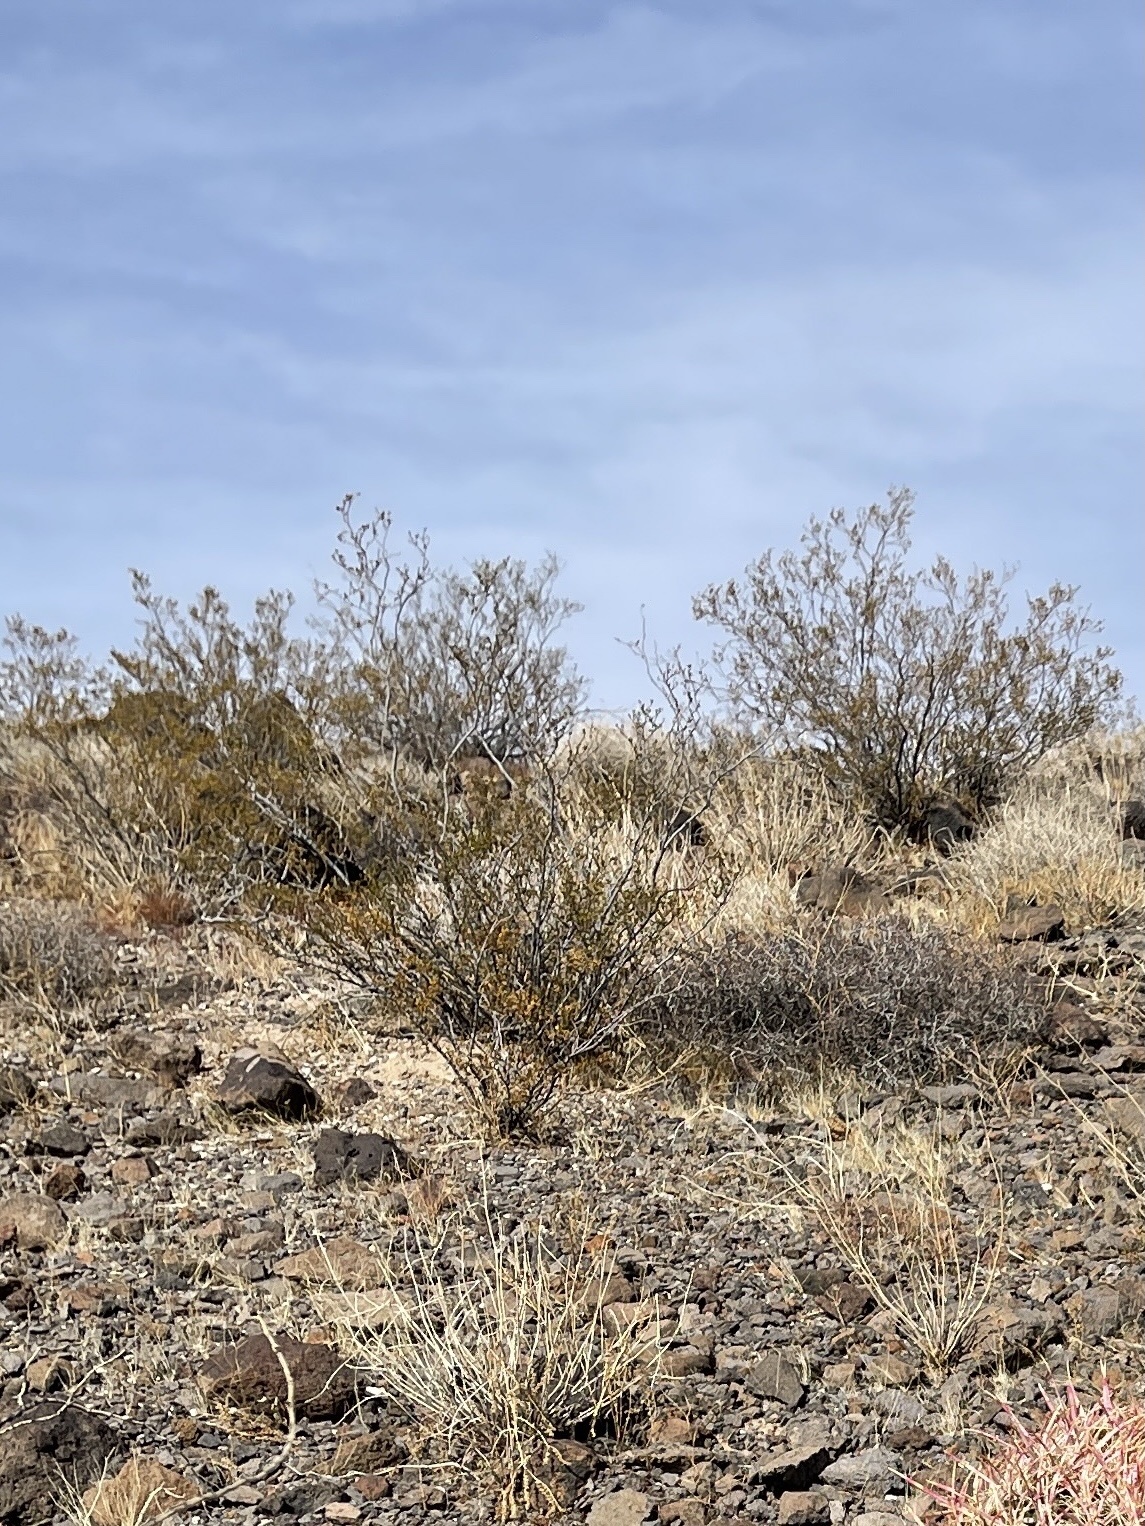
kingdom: Plantae
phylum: Tracheophyta
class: Magnoliopsida
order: Zygophyllales
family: Zygophyllaceae
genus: Larrea
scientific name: Larrea tridentata
